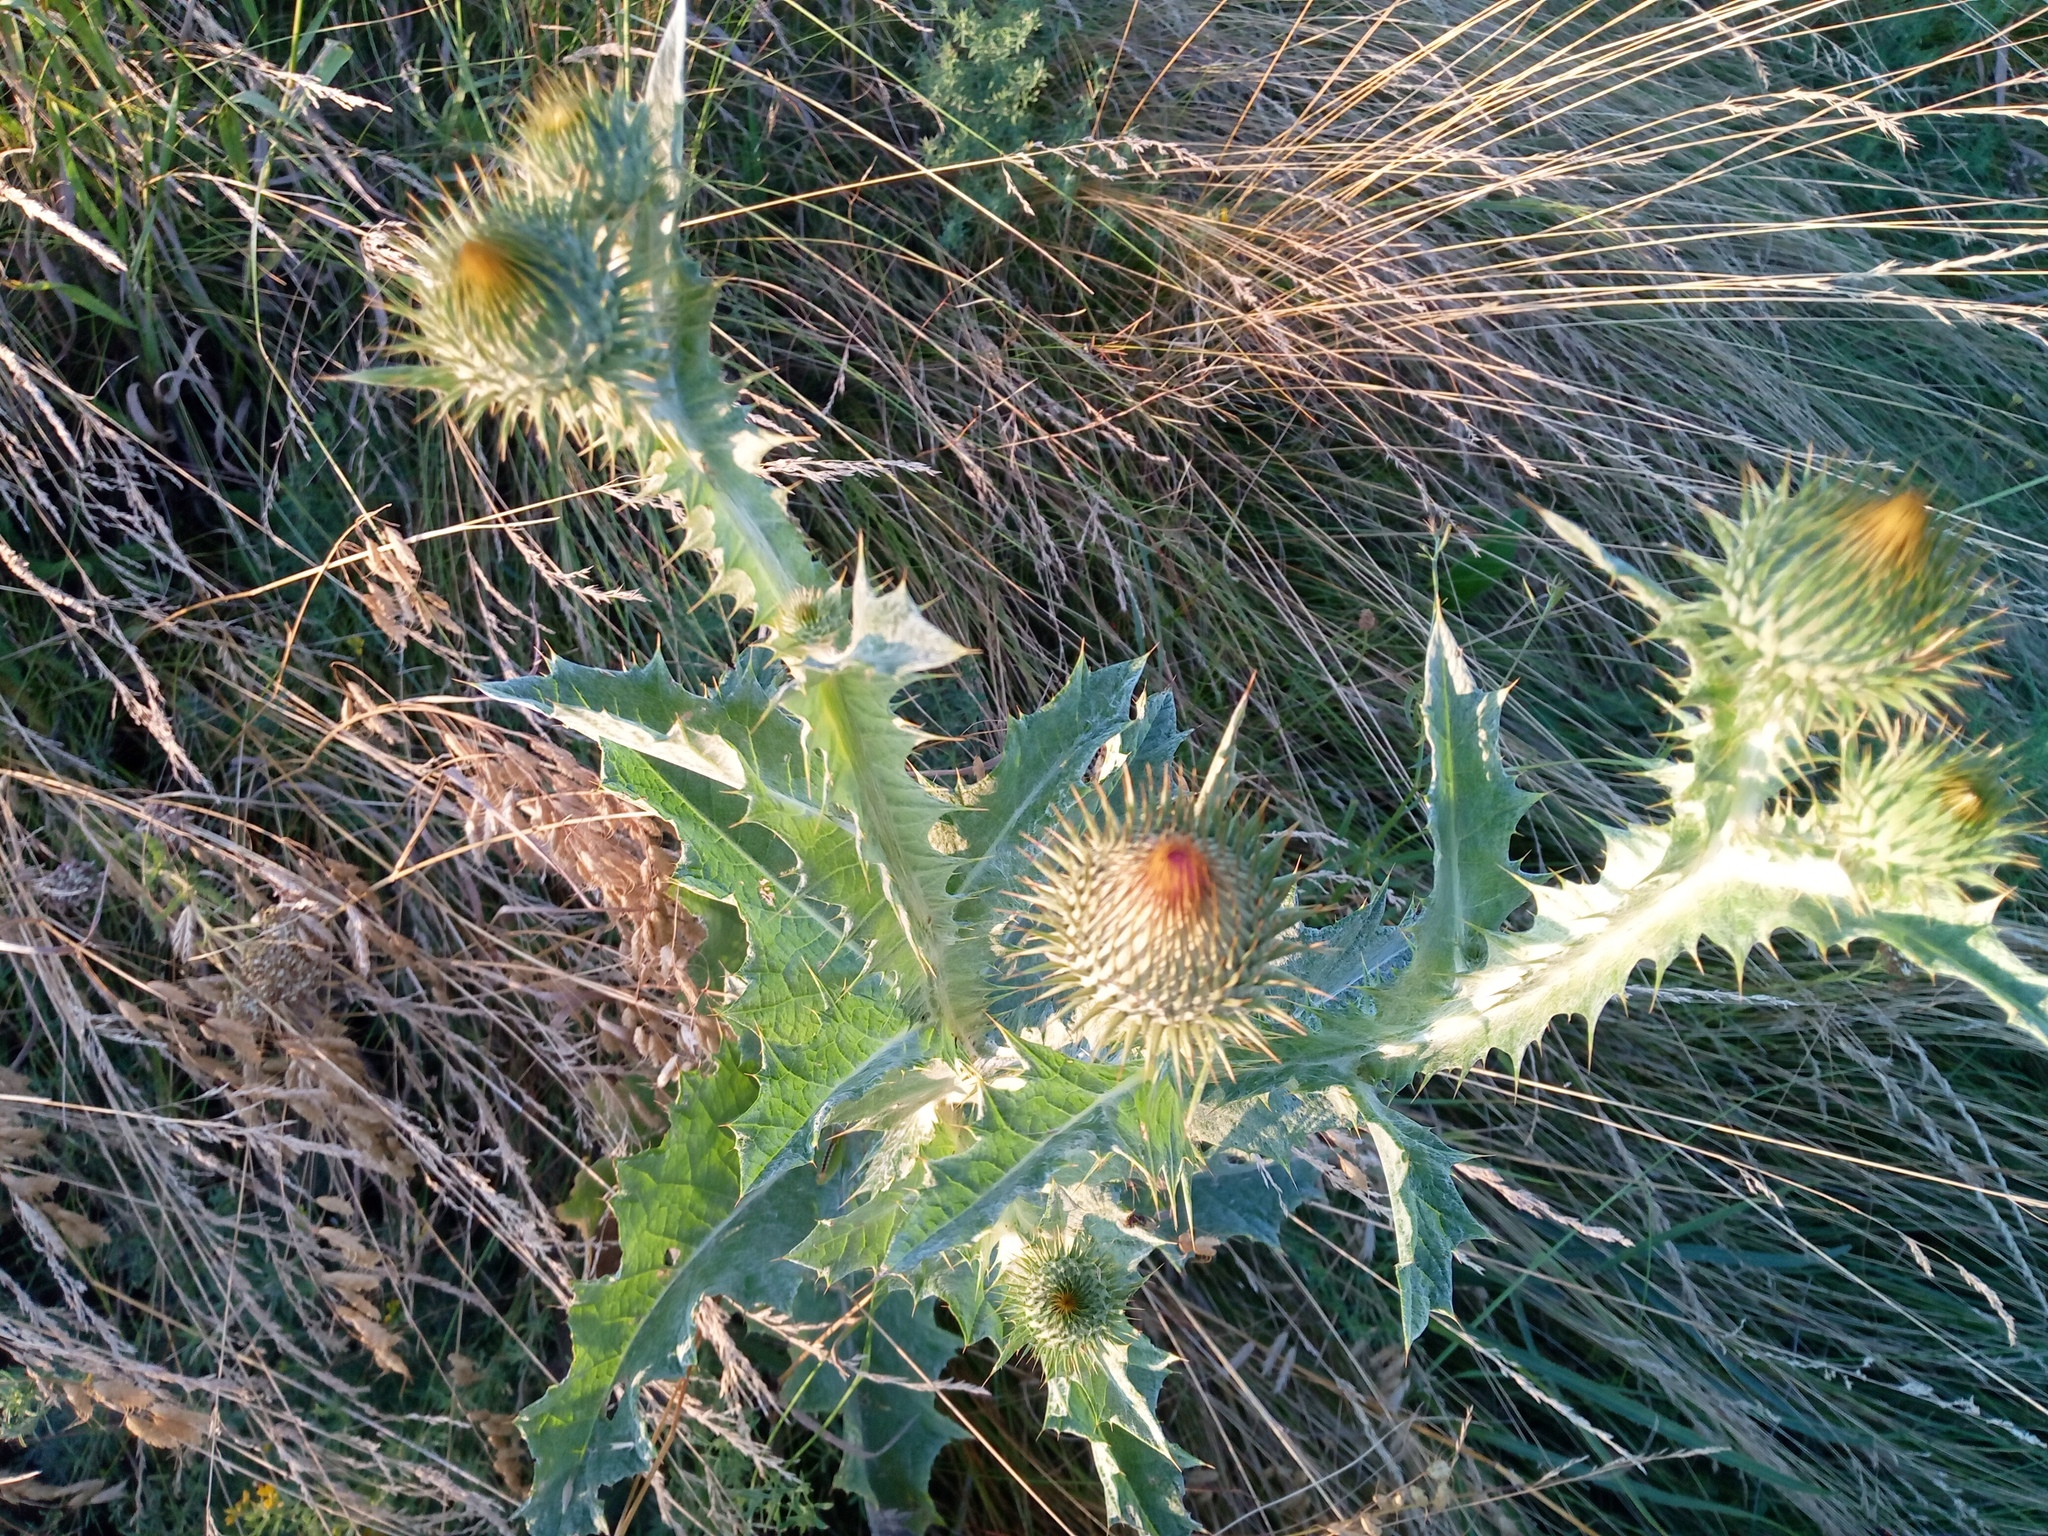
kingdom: Plantae
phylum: Tracheophyta
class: Magnoliopsida
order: Asterales
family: Asteraceae
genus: Onopordum
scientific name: Onopordum acanthium
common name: Scotch thistle
